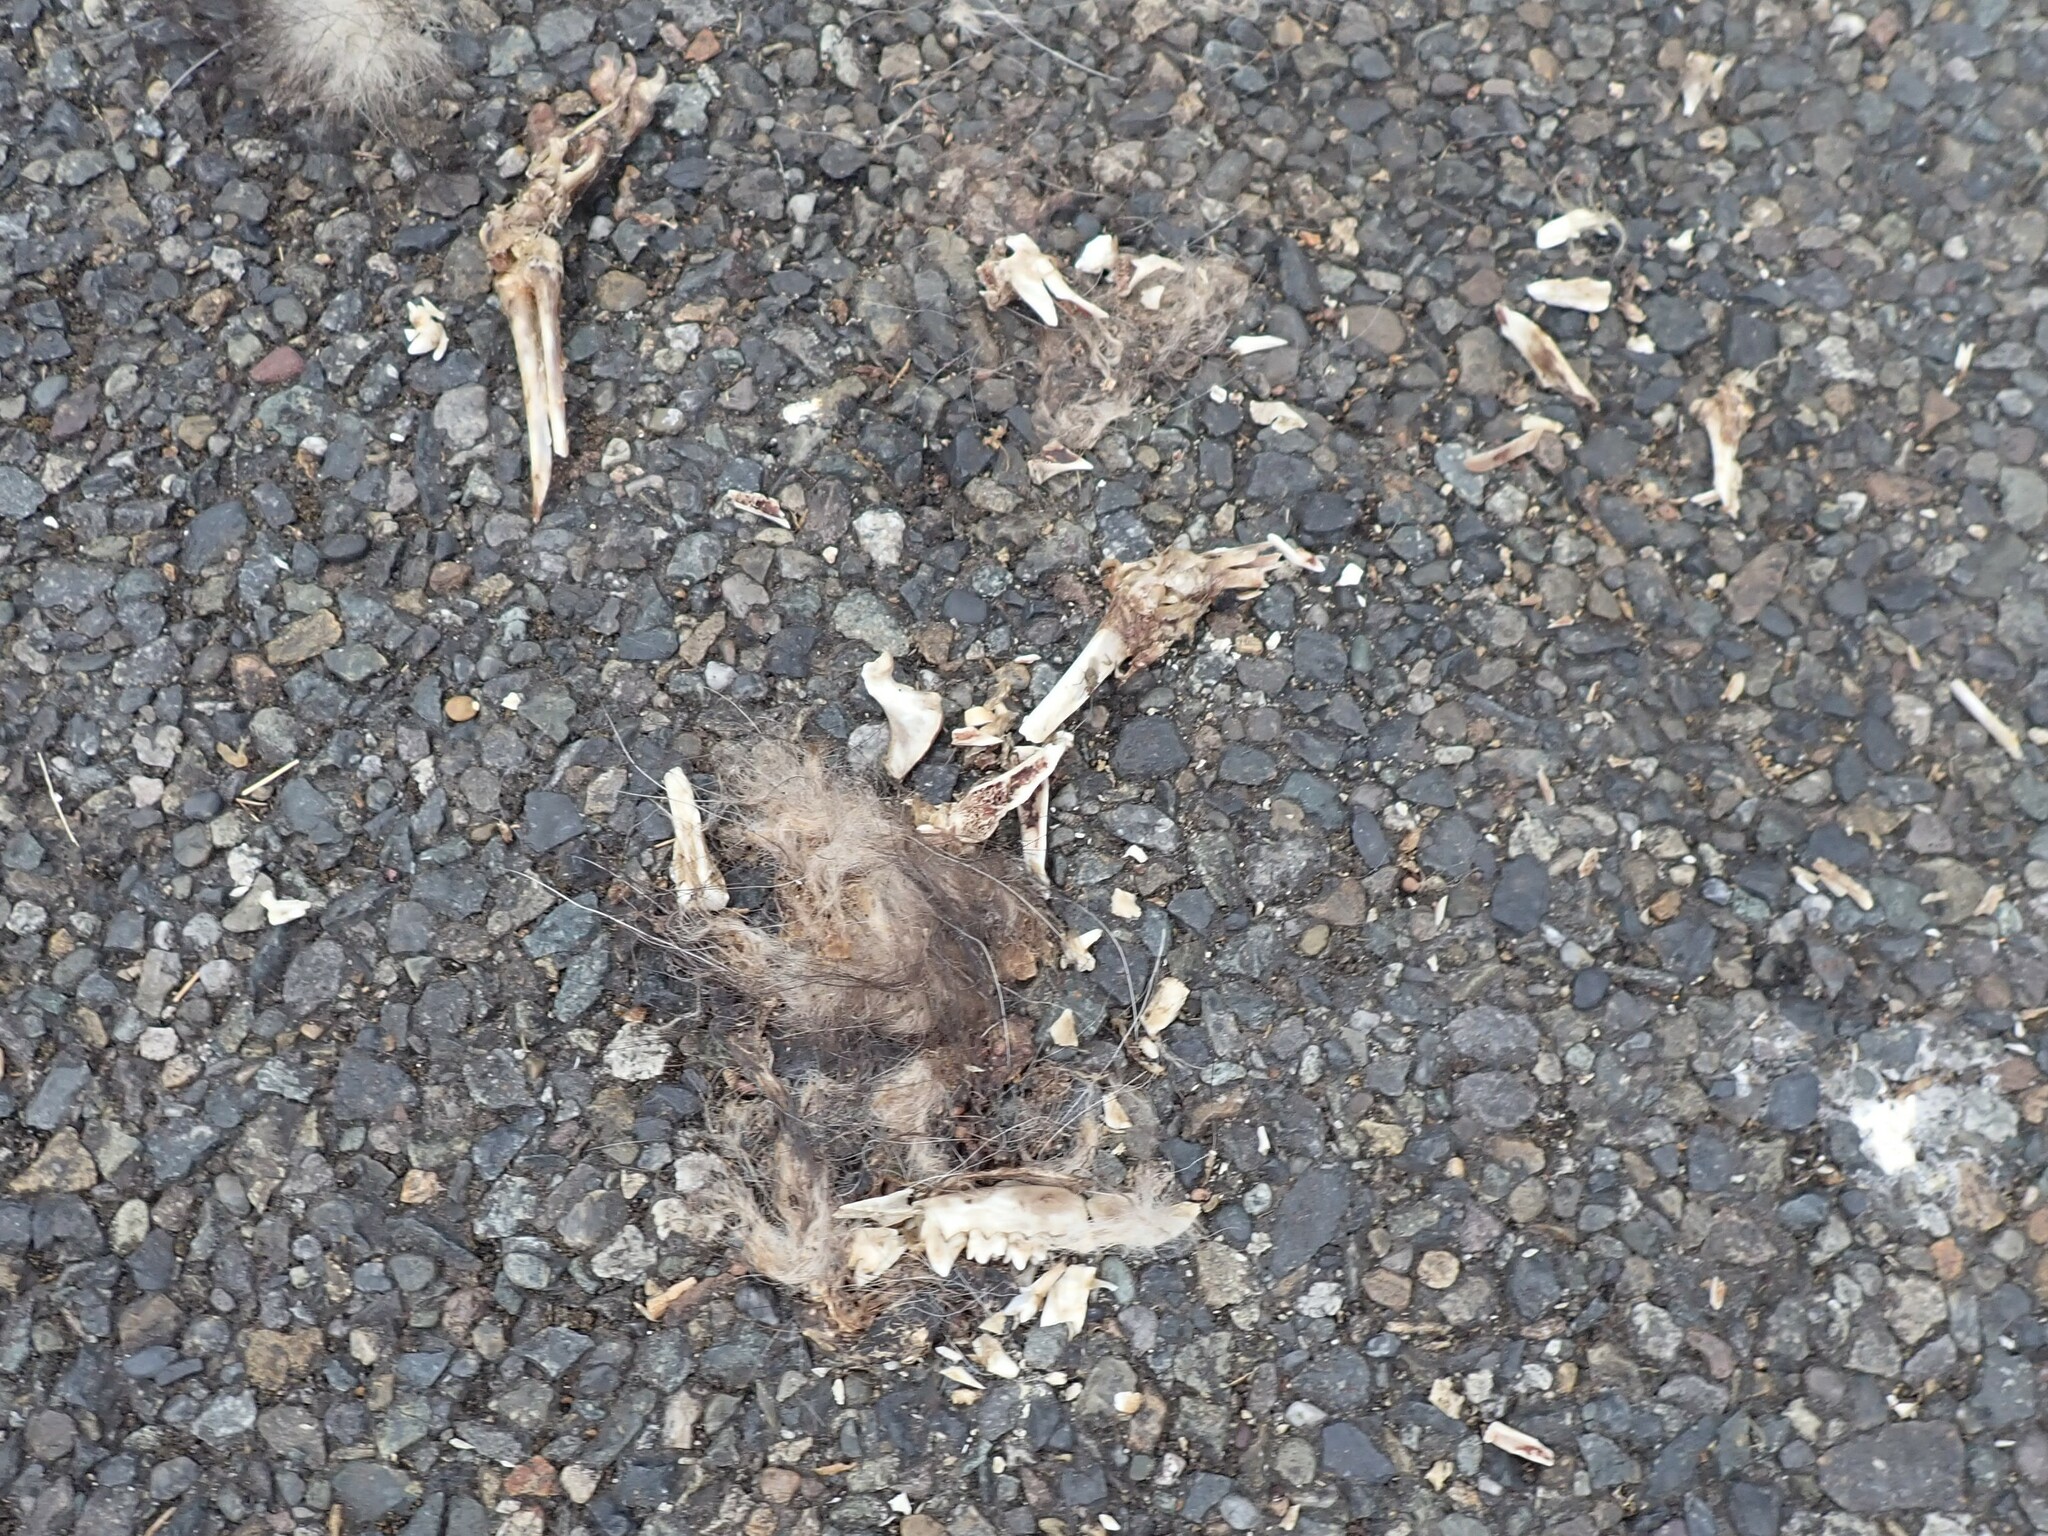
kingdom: Animalia
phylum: Chordata
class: Mammalia
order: Didelphimorphia
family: Didelphidae
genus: Didelphis
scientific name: Didelphis virginiana
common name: Virginia opossum
